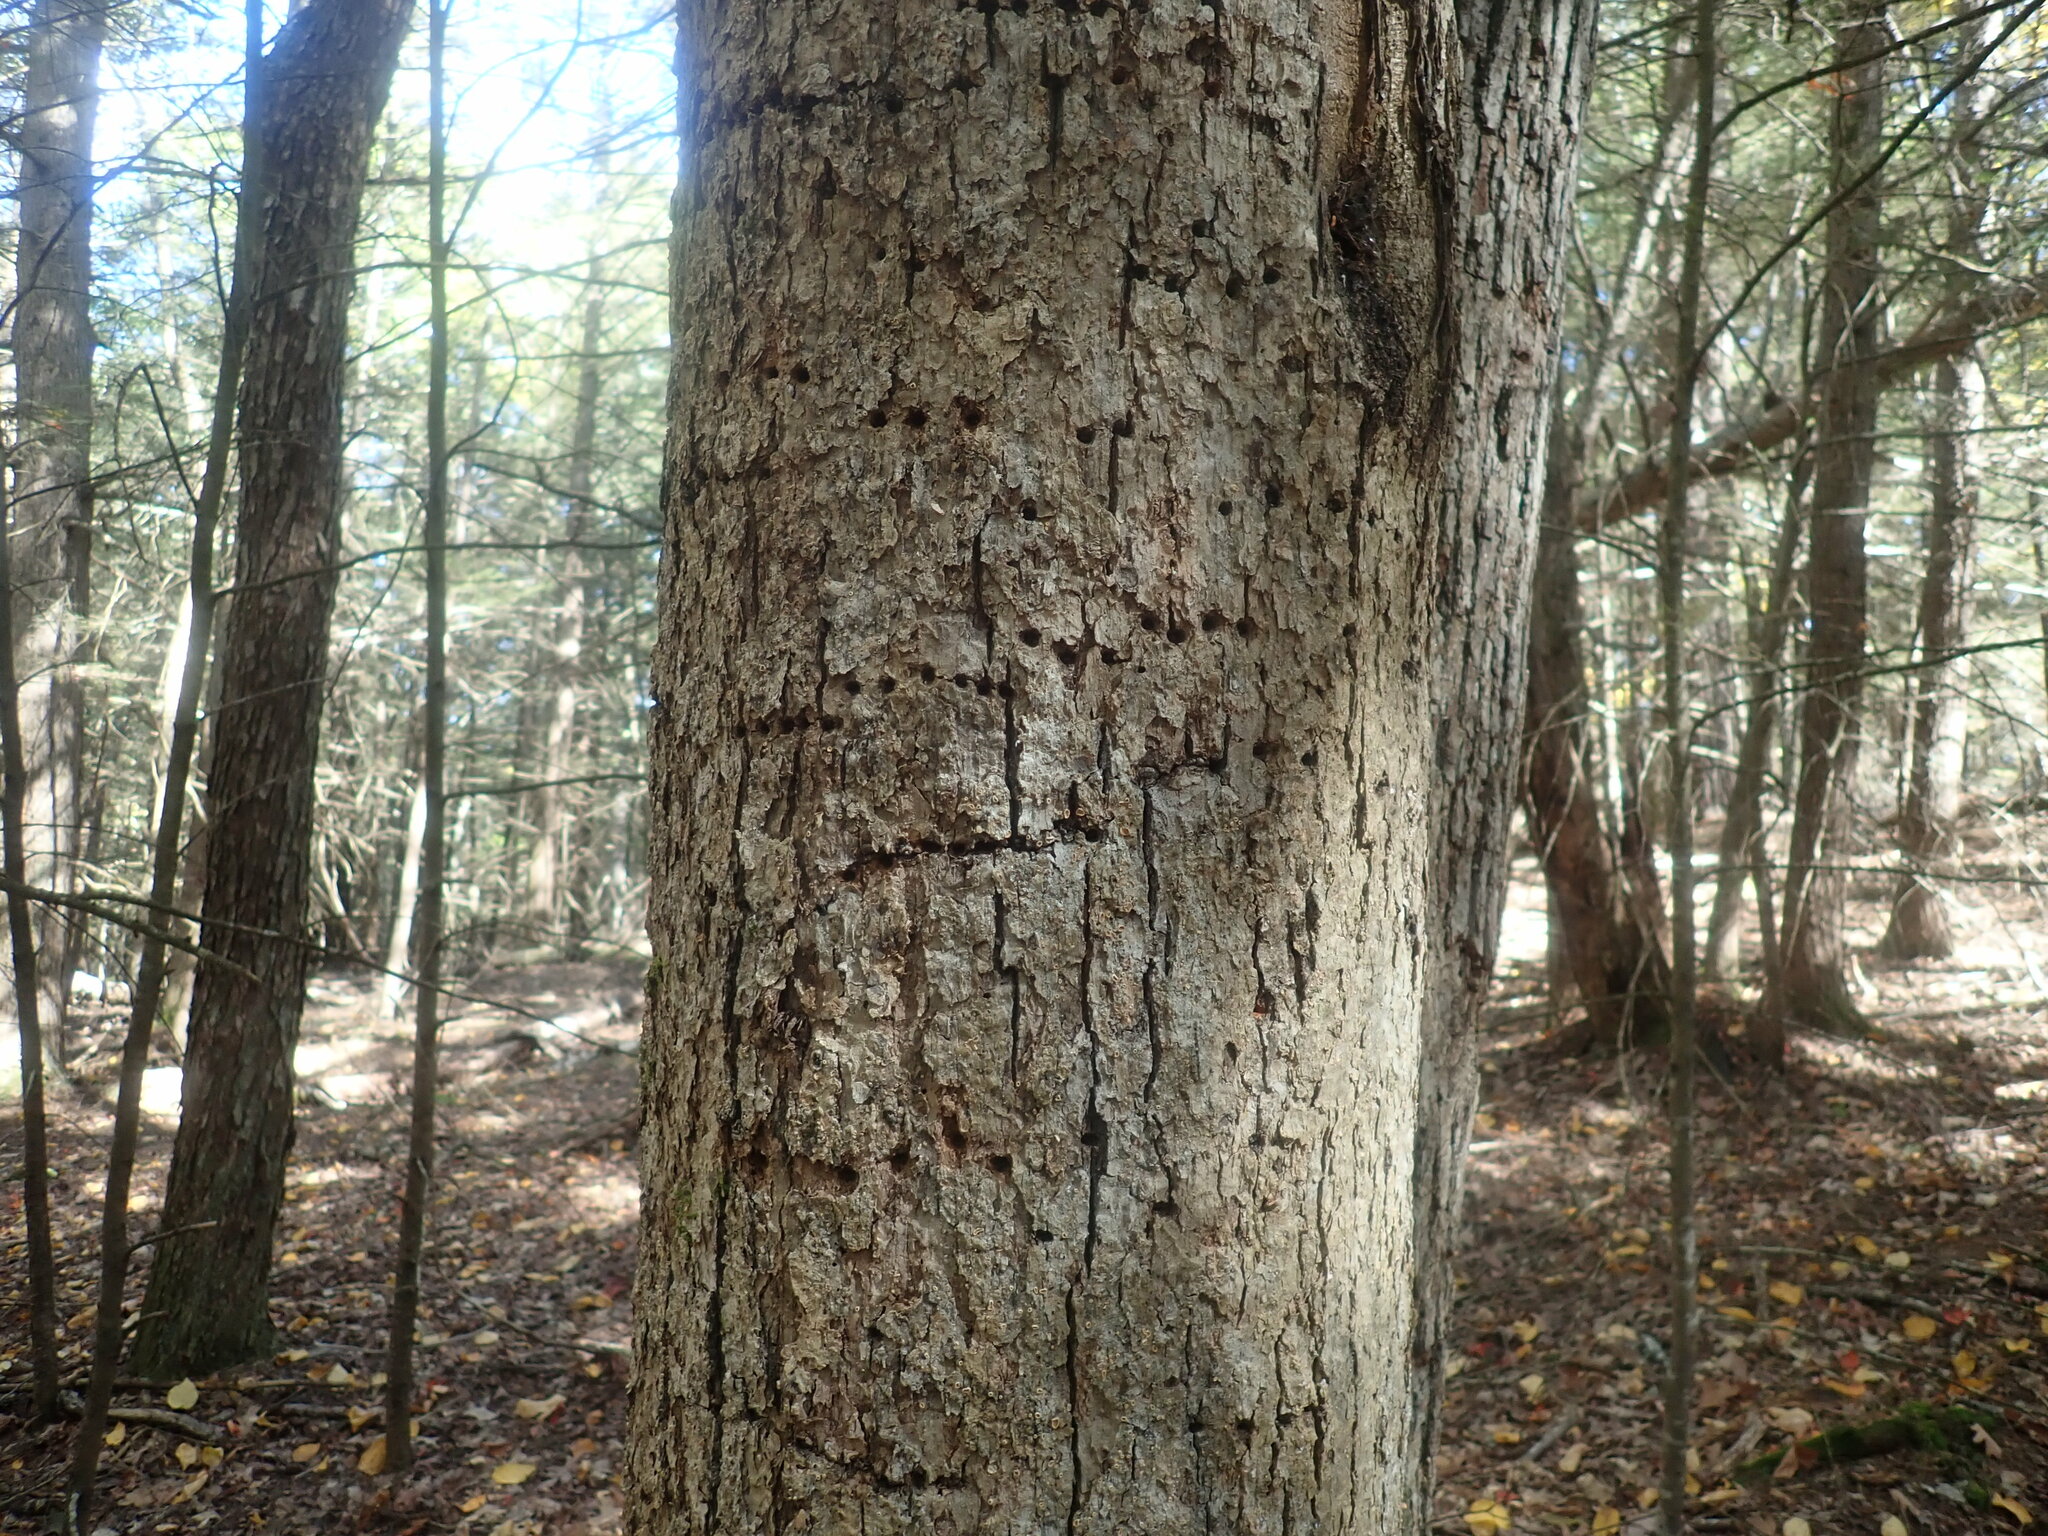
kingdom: Animalia
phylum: Chordata
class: Aves
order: Piciformes
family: Picidae
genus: Sphyrapicus
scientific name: Sphyrapicus varius
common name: Yellow-bellied sapsucker
